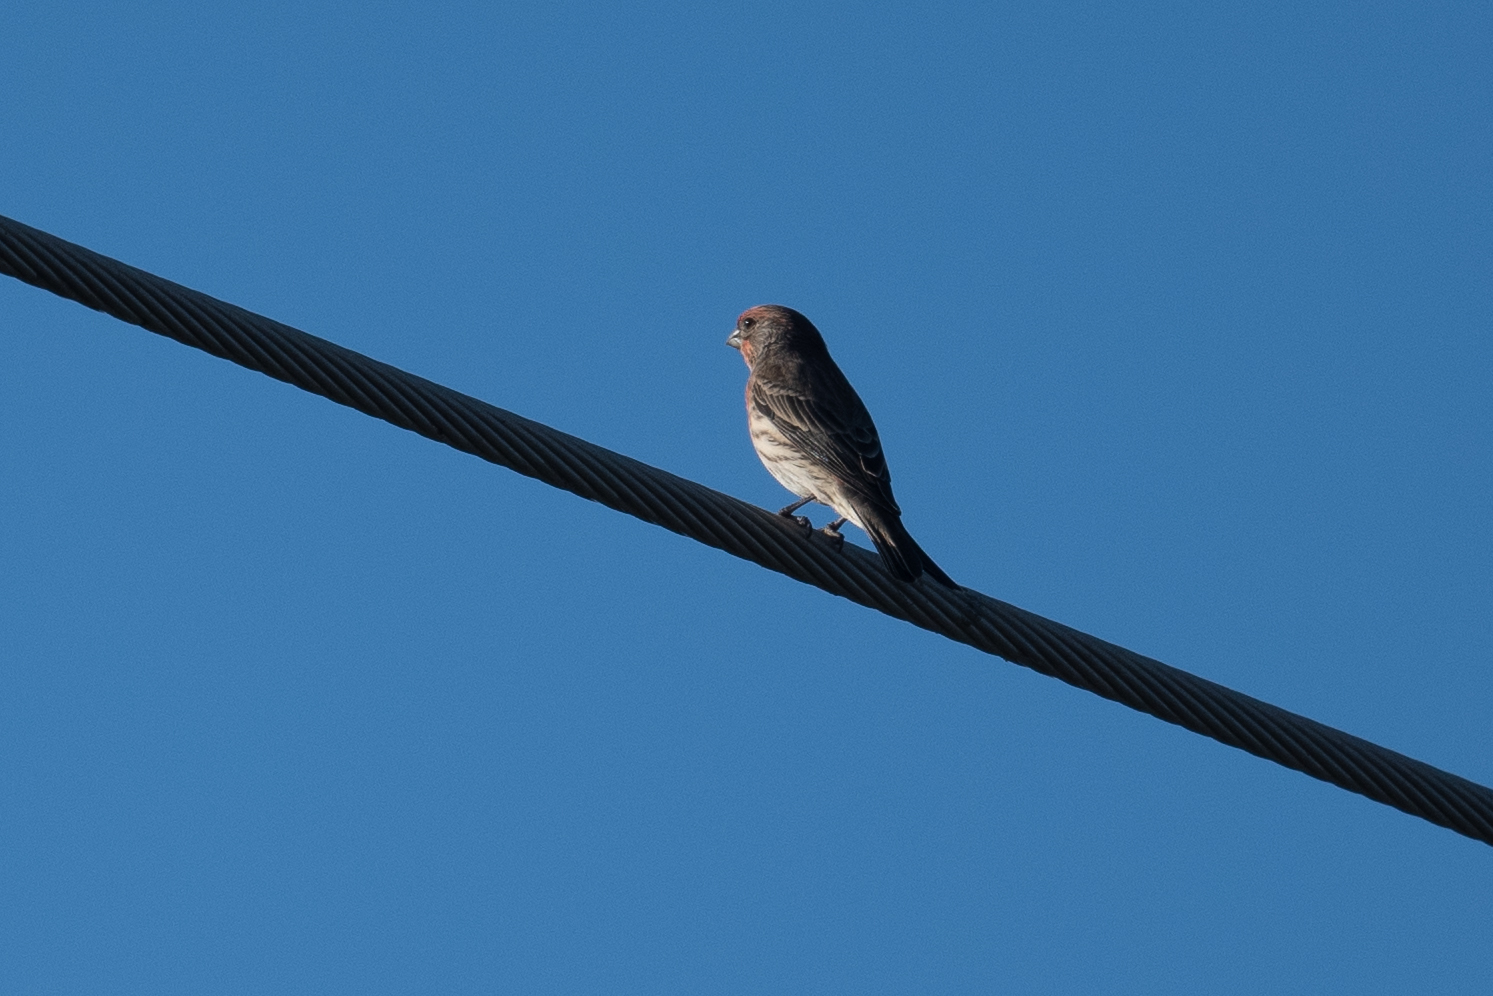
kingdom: Animalia
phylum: Chordata
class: Aves
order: Passeriformes
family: Fringillidae
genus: Haemorhous
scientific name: Haemorhous mexicanus
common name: House finch
